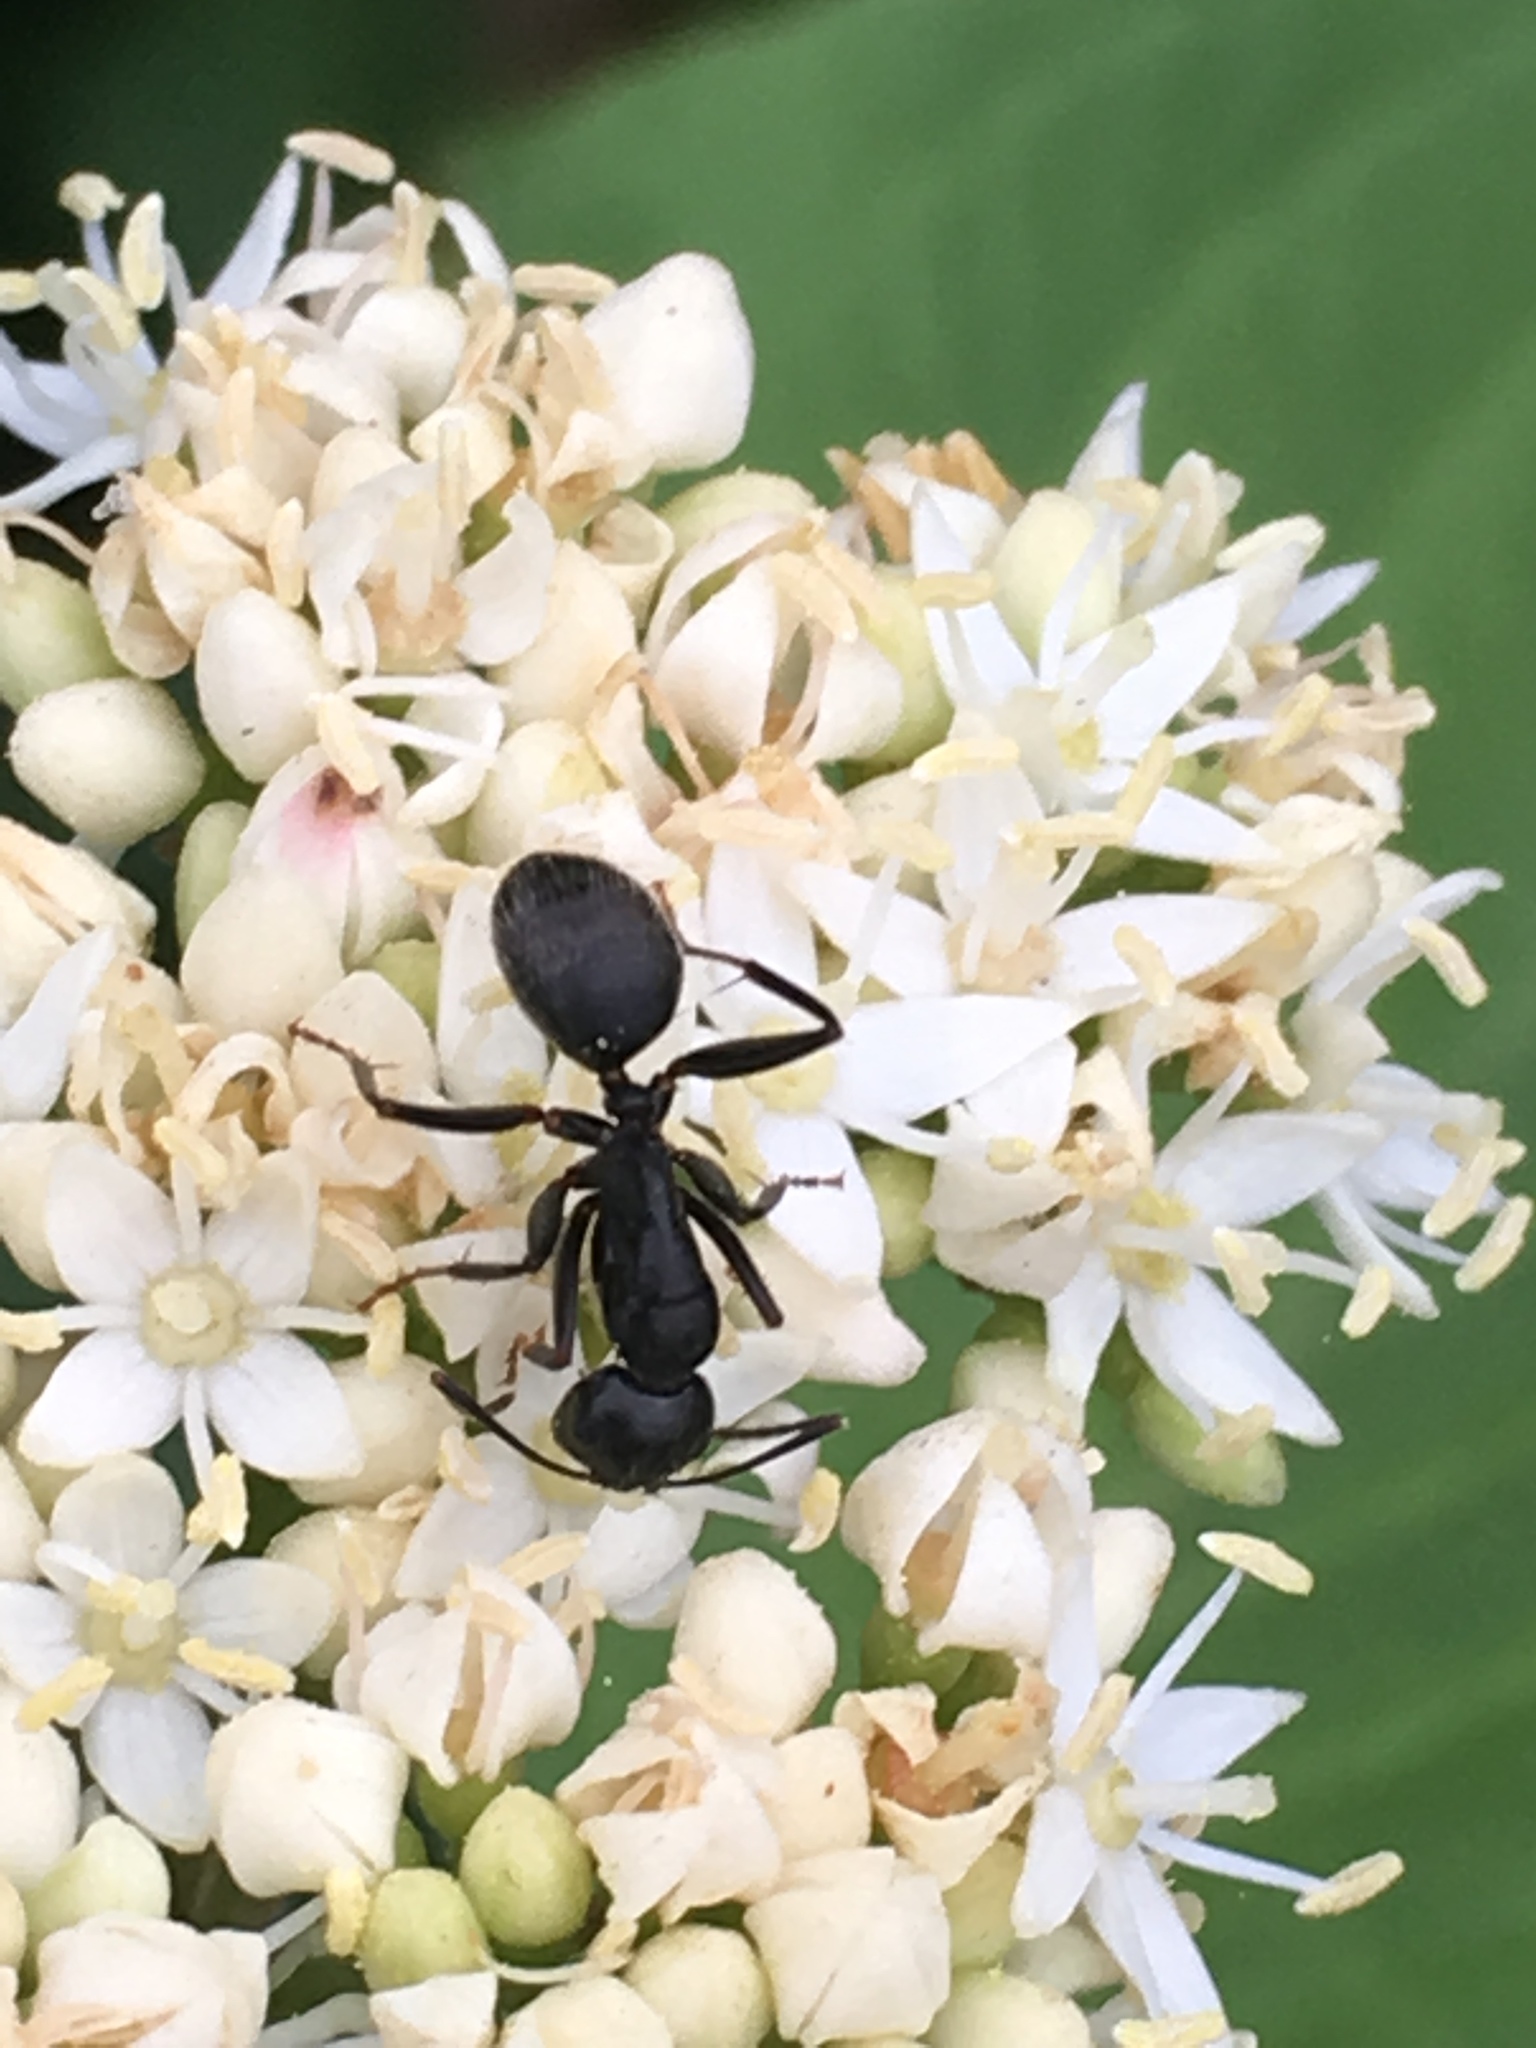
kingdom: Animalia
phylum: Arthropoda
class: Insecta
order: Hymenoptera
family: Formicidae
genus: Camponotus
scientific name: Camponotus pennsylvanicus
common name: Black carpenter ant
